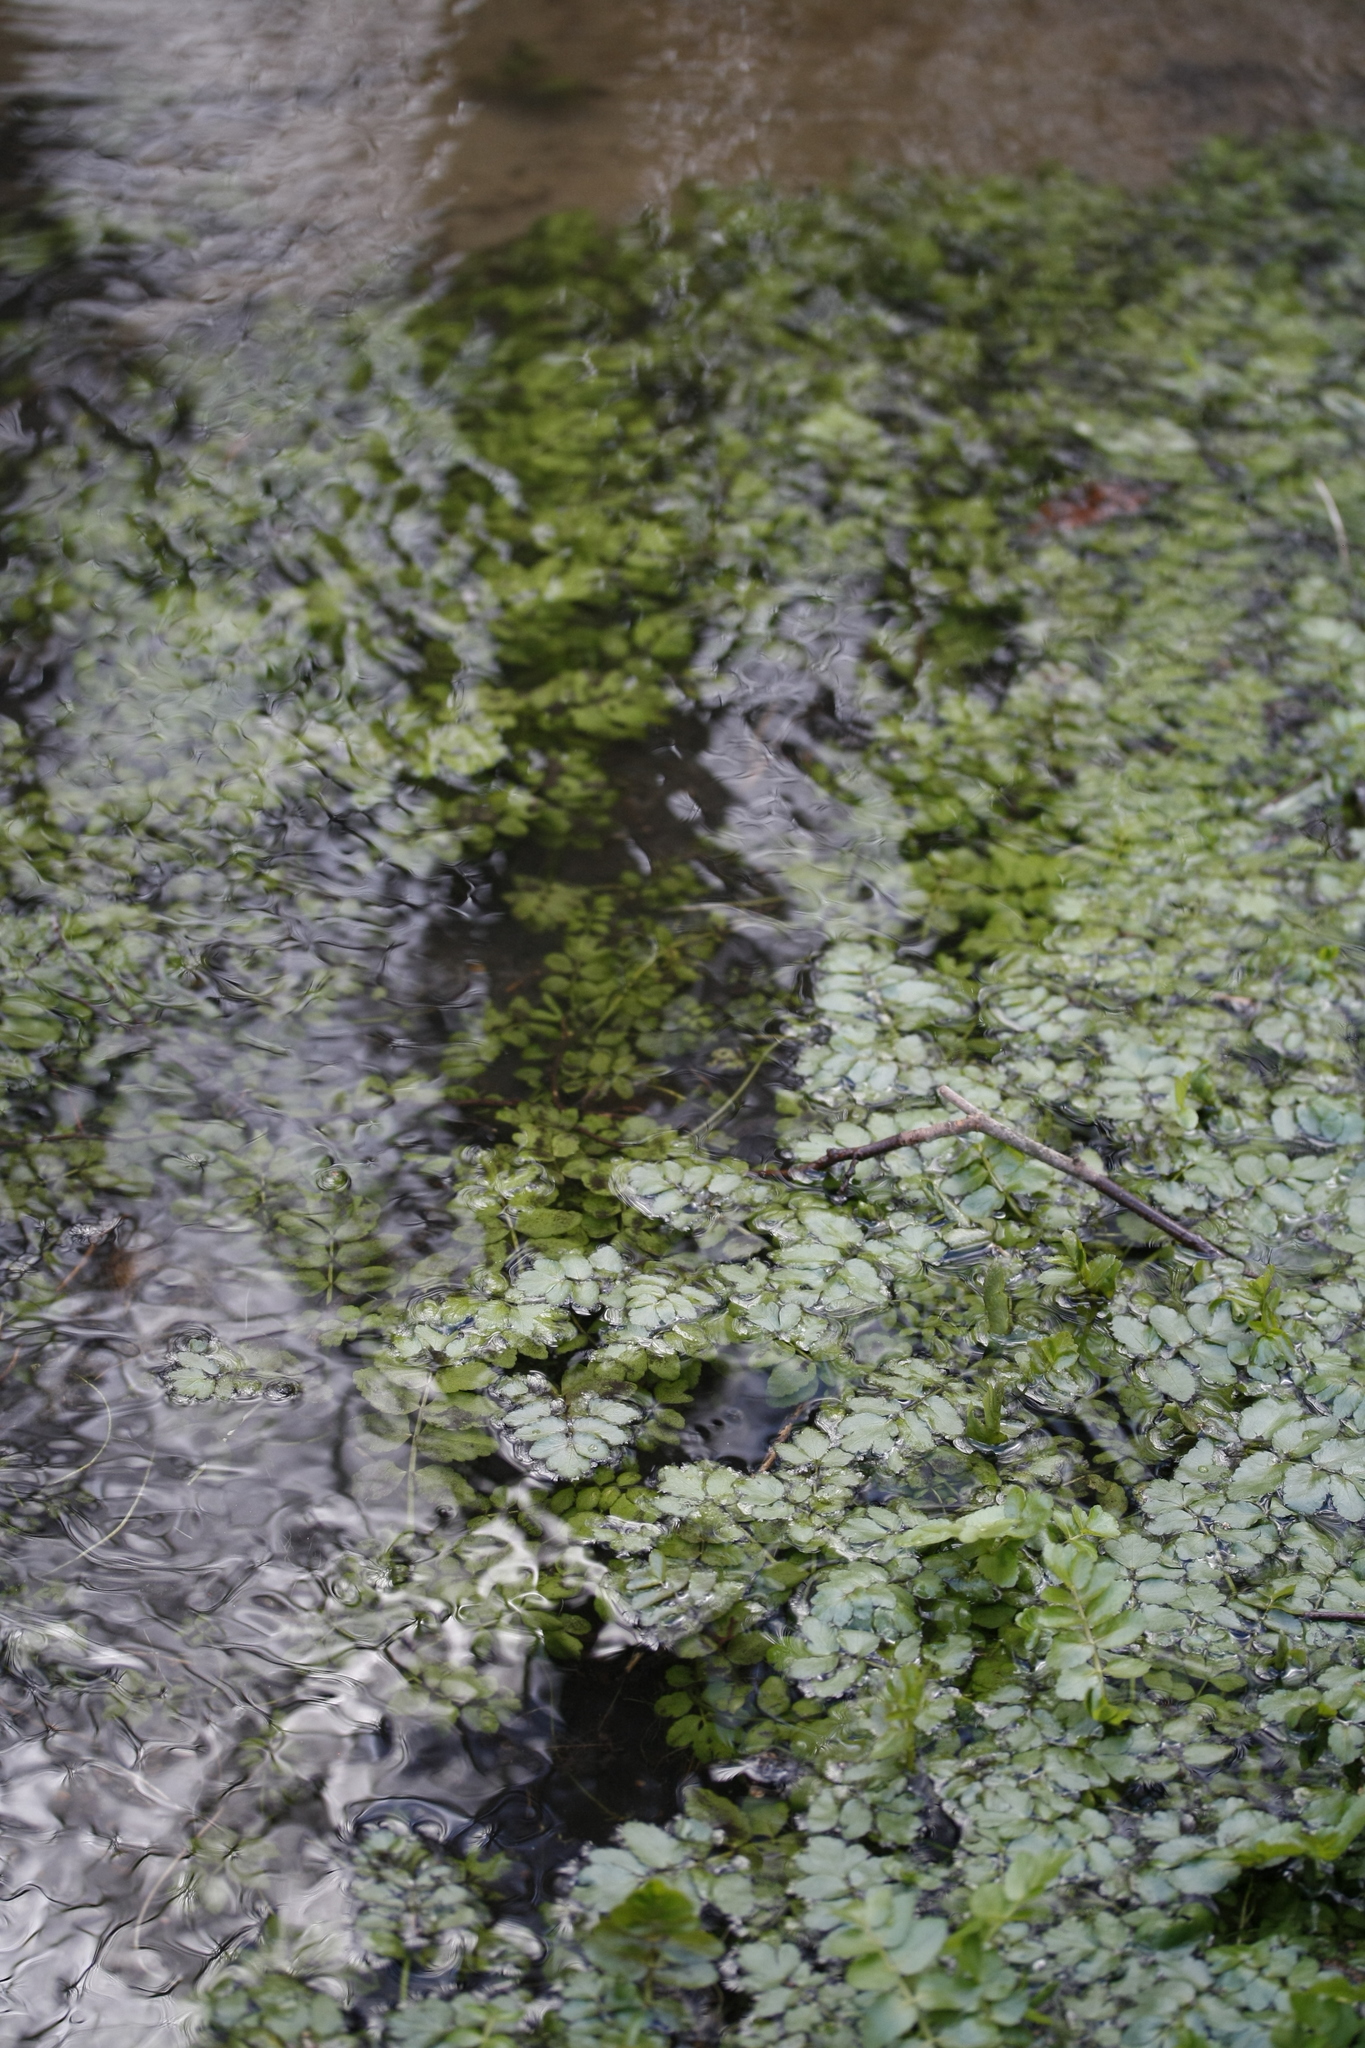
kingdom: Plantae
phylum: Tracheophyta
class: Magnoliopsida
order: Apiales
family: Apiaceae
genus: Berula
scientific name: Berula erecta
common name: Lesser water-parsnip
